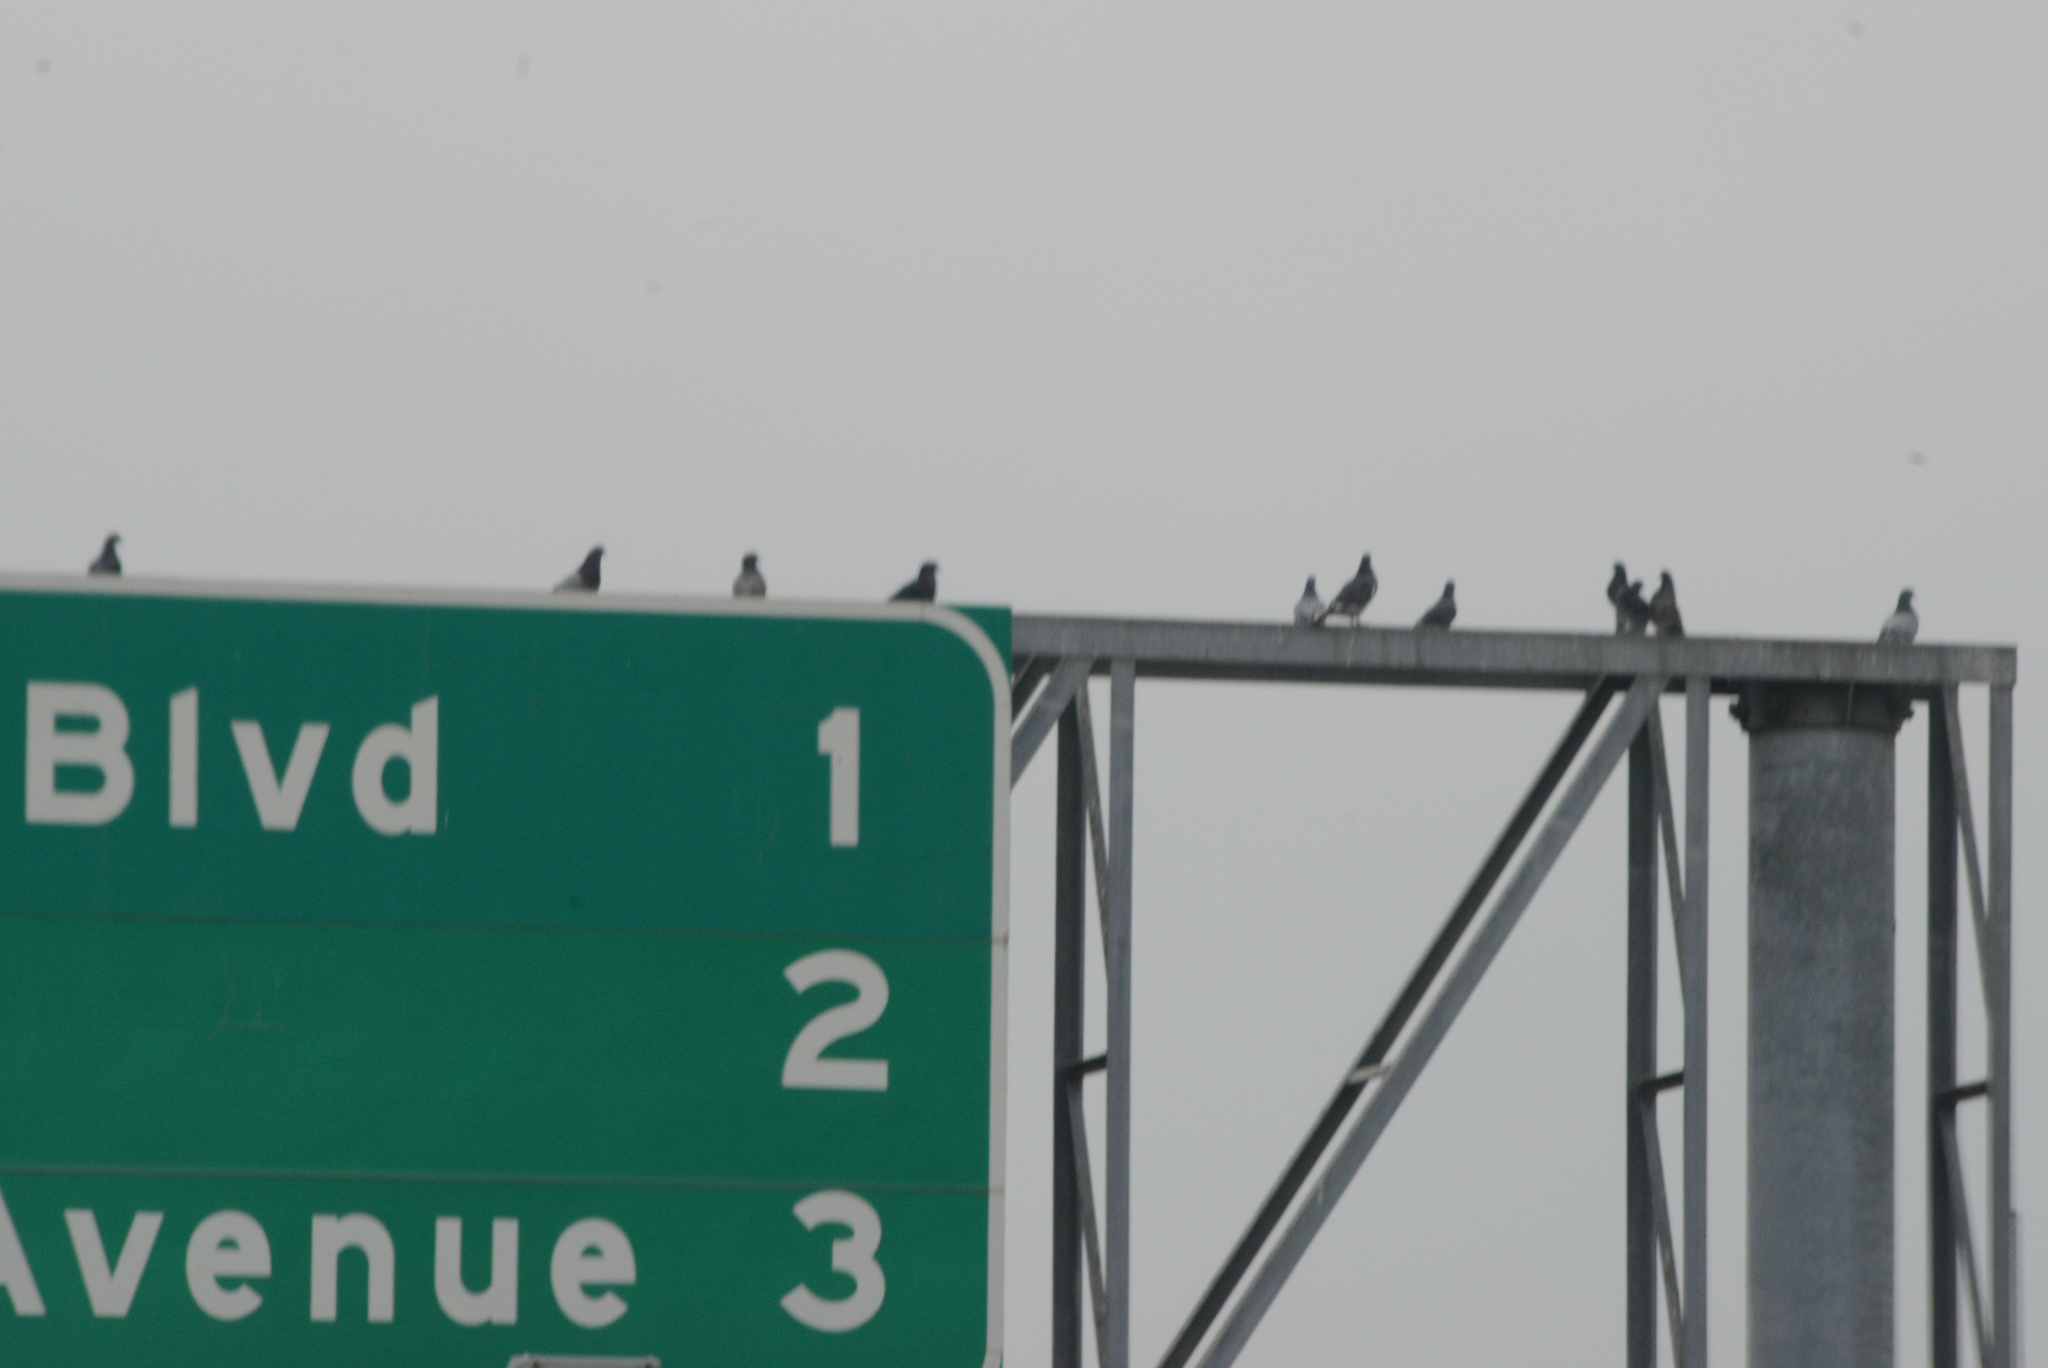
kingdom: Animalia
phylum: Chordata
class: Aves
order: Columbiformes
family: Columbidae
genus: Columba
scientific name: Columba livia
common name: Rock pigeon
